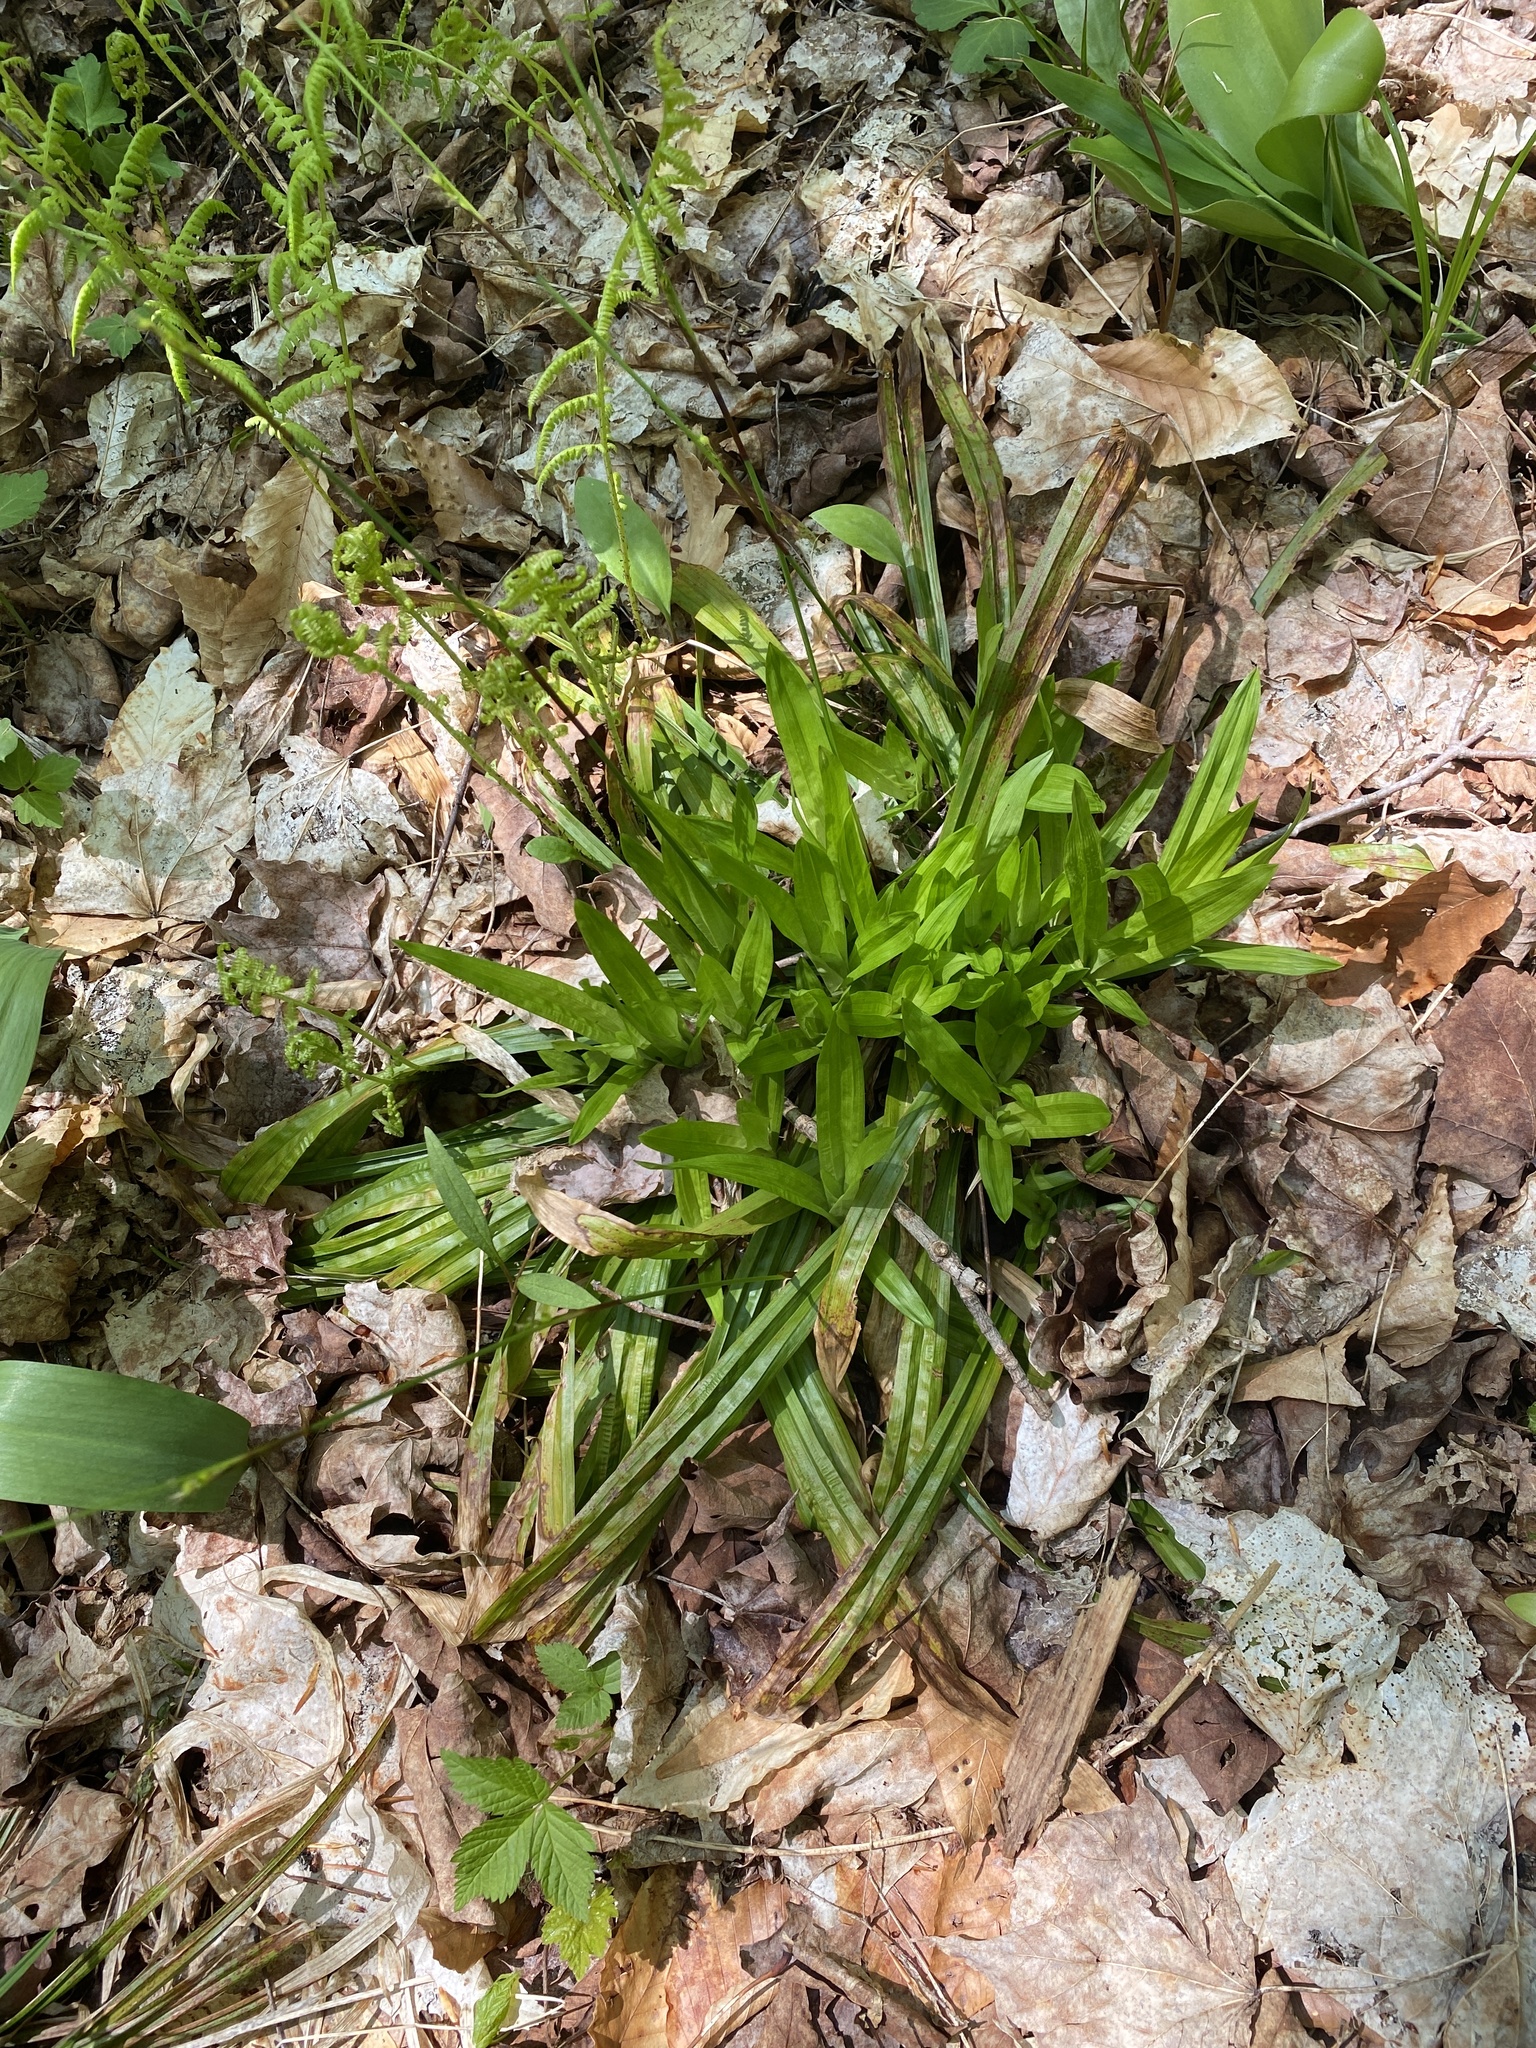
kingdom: Plantae
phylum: Tracheophyta
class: Liliopsida
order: Poales
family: Cyperaceae
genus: Carex
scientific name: Carex plantaginea
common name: Plantain-leaved sedge
